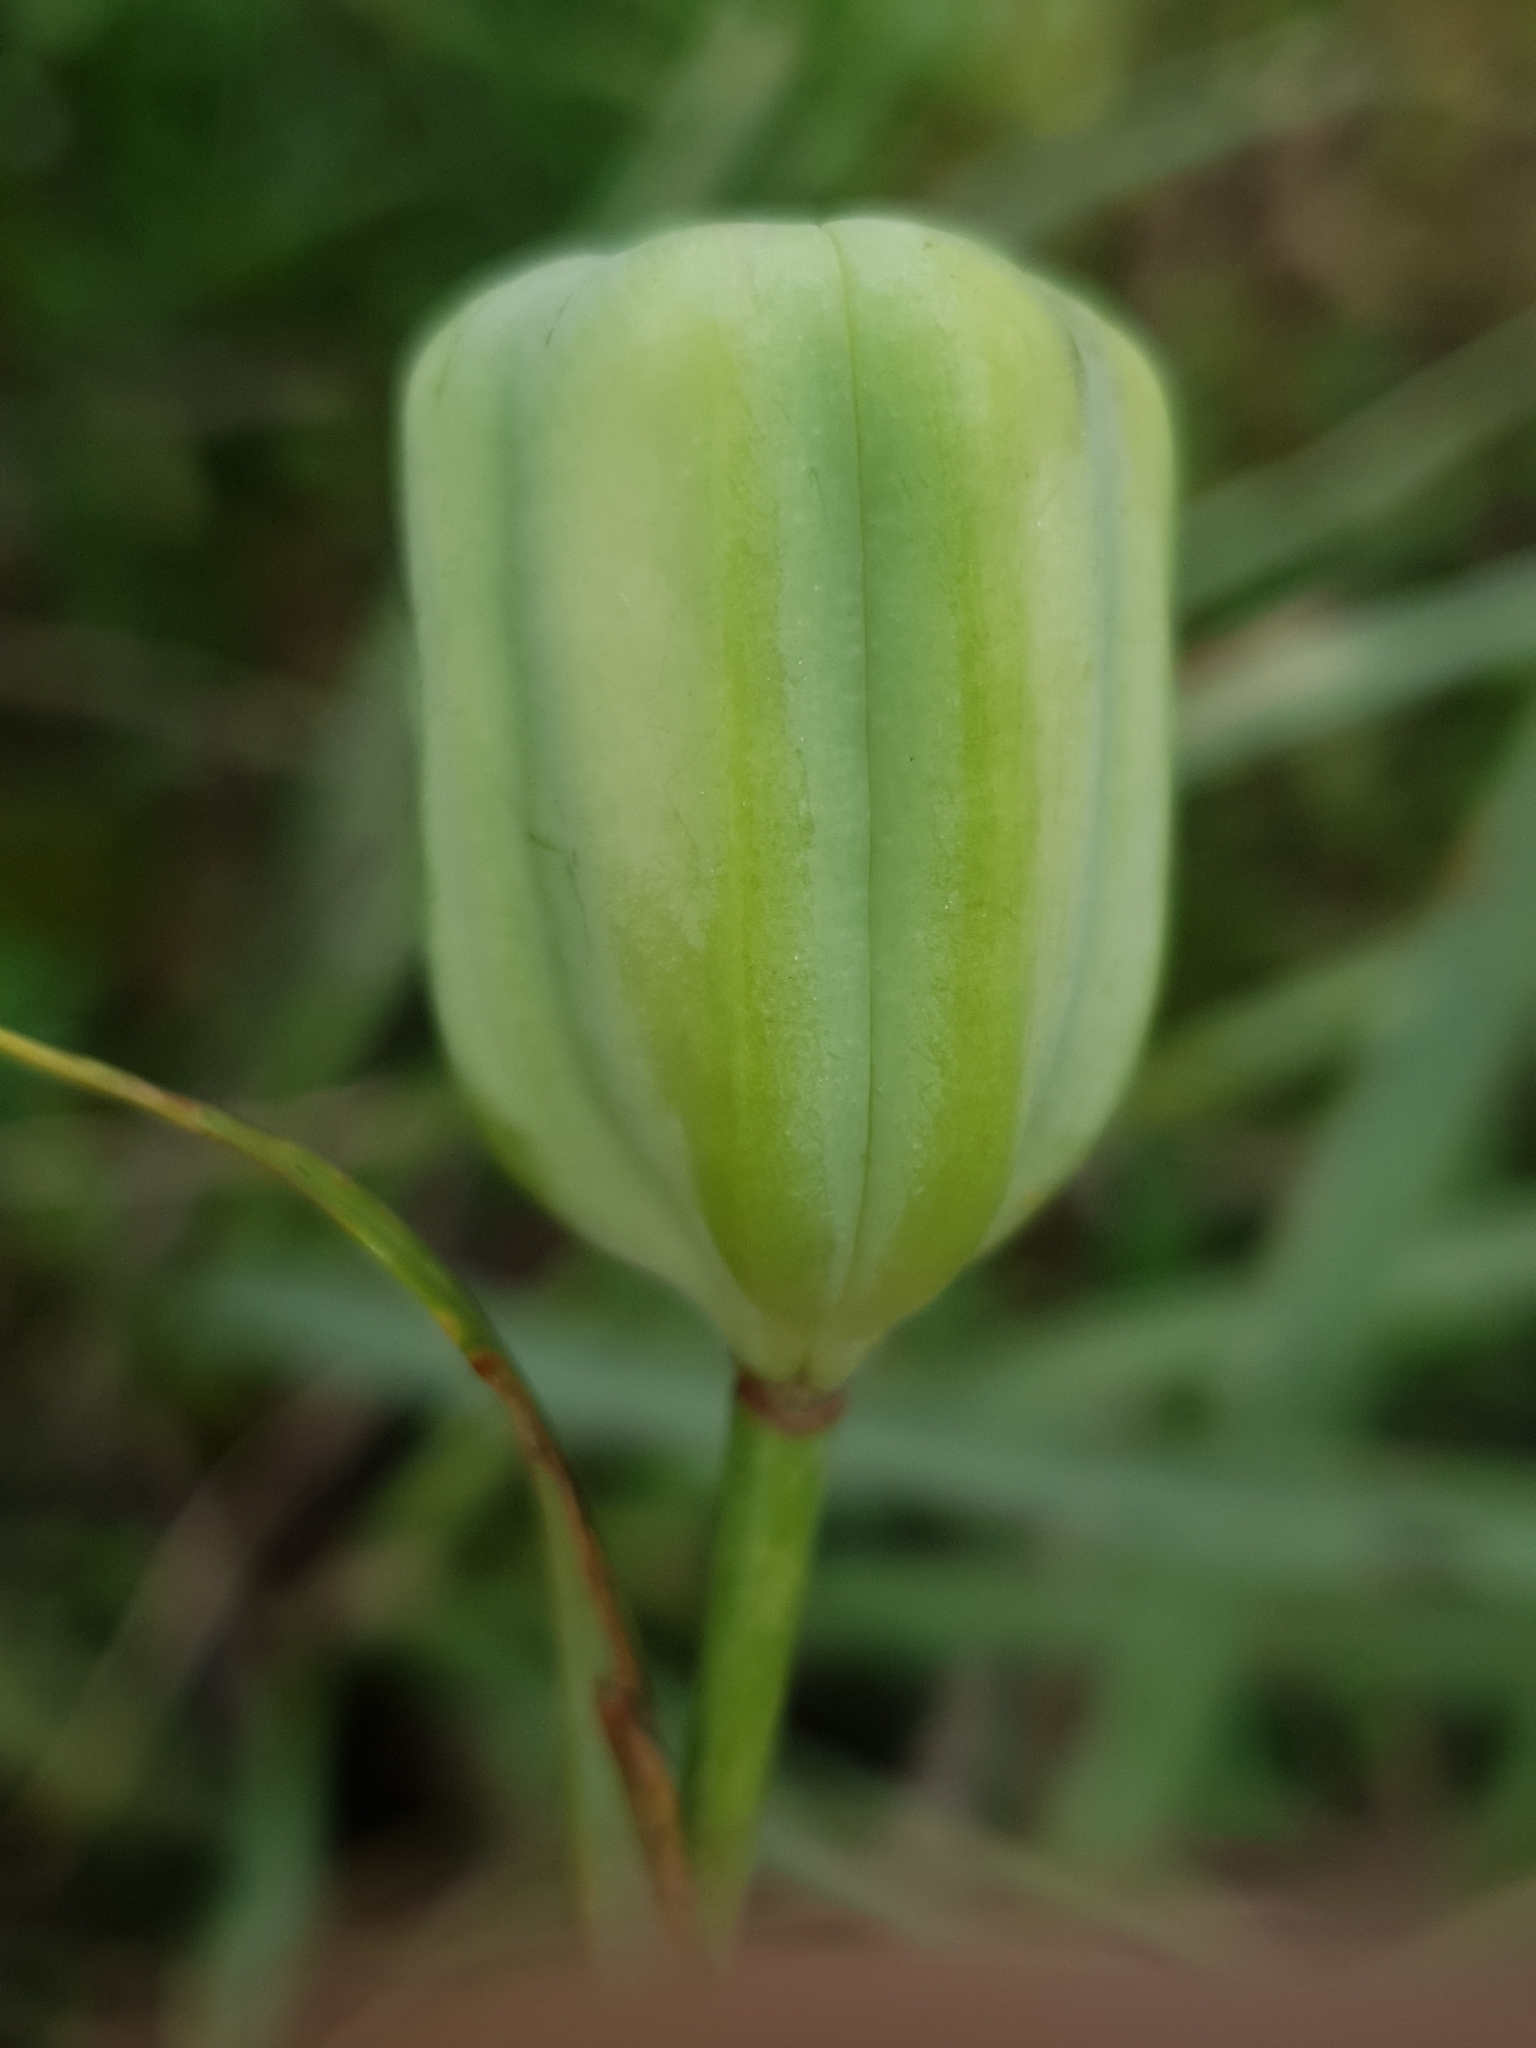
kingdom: Plantae
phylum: Tracheophyta
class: Liliopsida
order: Liliales
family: Liliaceae
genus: Fritillaria
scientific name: Fritillaria oranensis
